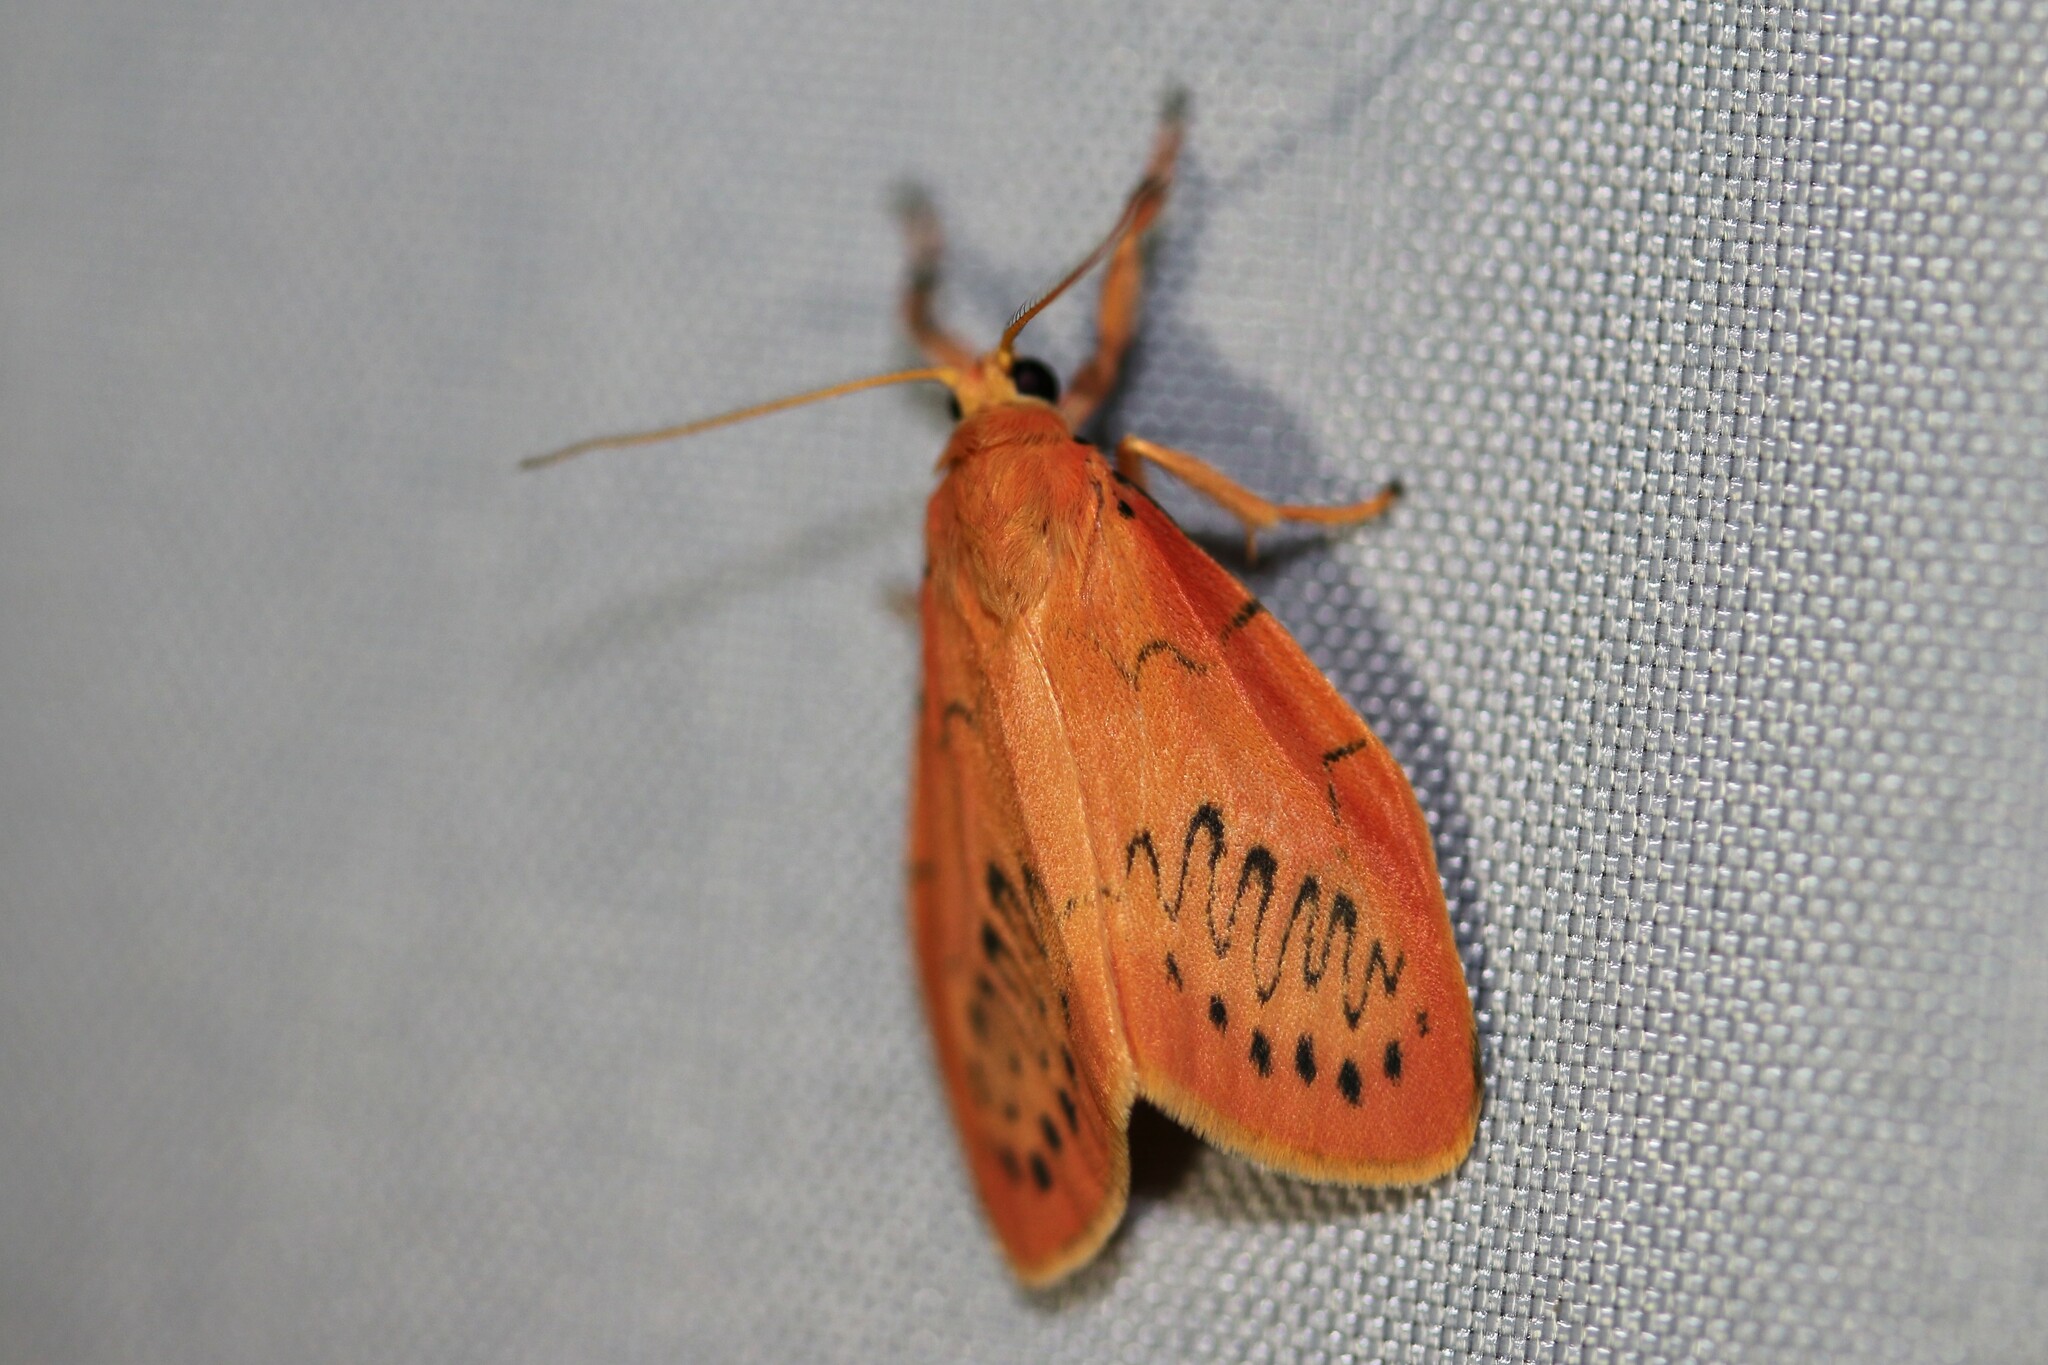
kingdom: Animalia
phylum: Arthropoda
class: Insecta
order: Lepidoptera
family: Erebidae
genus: Miltochrista
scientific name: Miltochrista miniata
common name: Rosy footman
